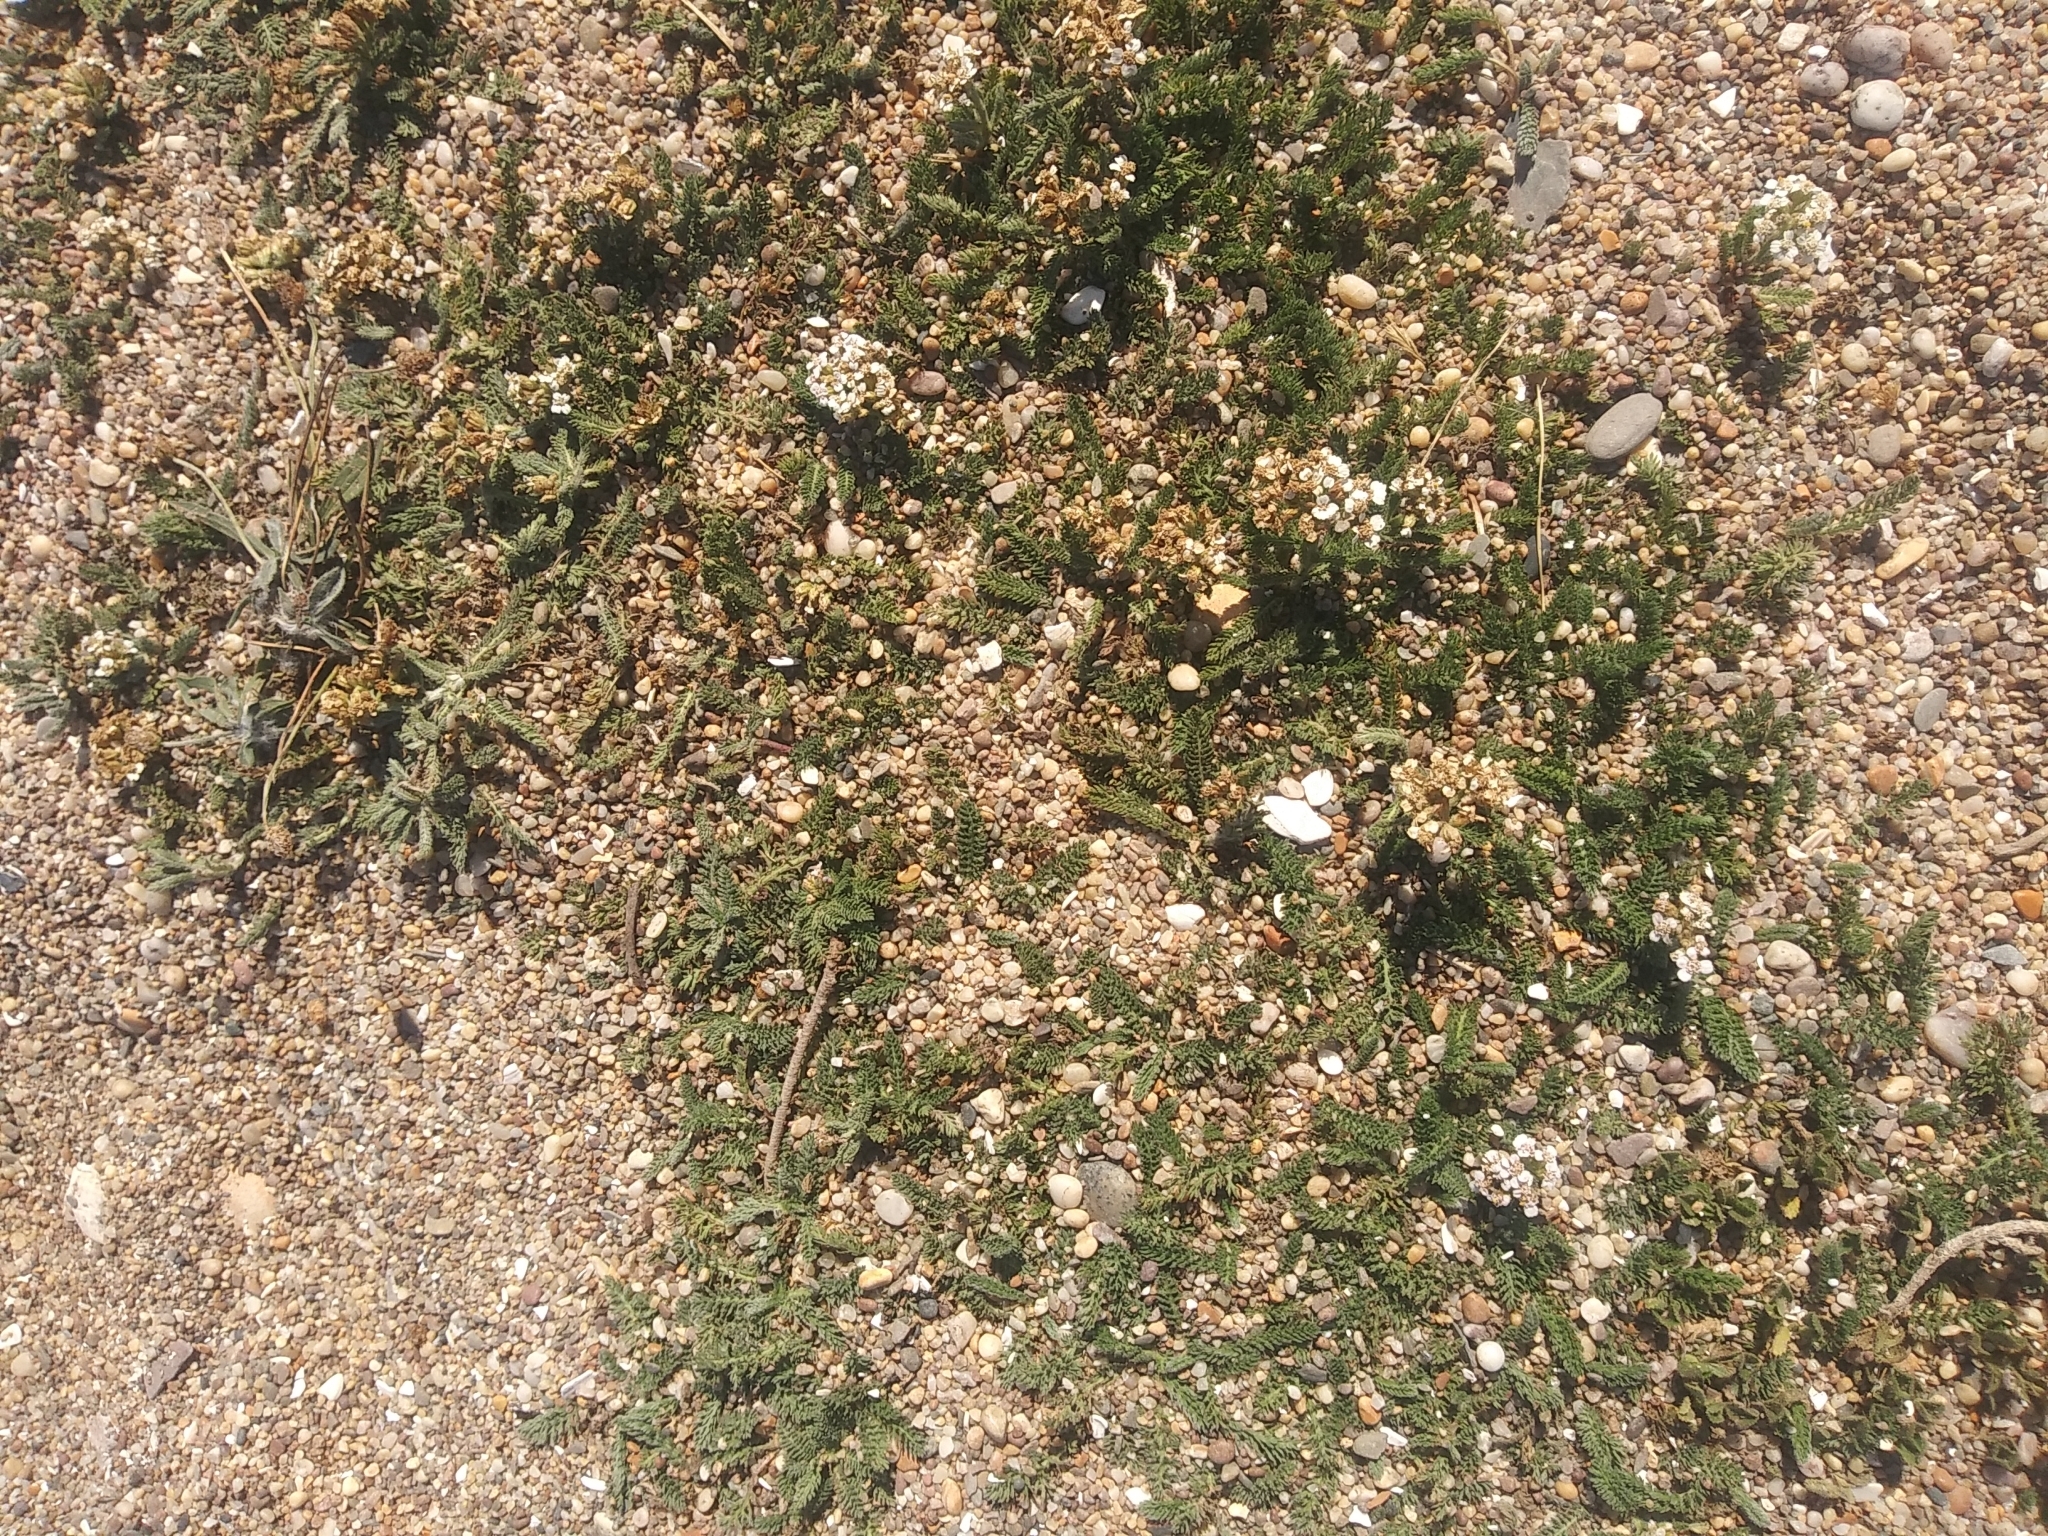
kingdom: Plantae
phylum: Tracheophyta
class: Magnoliopsida
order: Asterales
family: Asteraceae
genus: Achillea
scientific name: Achillea millefolium
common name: Yarrow
